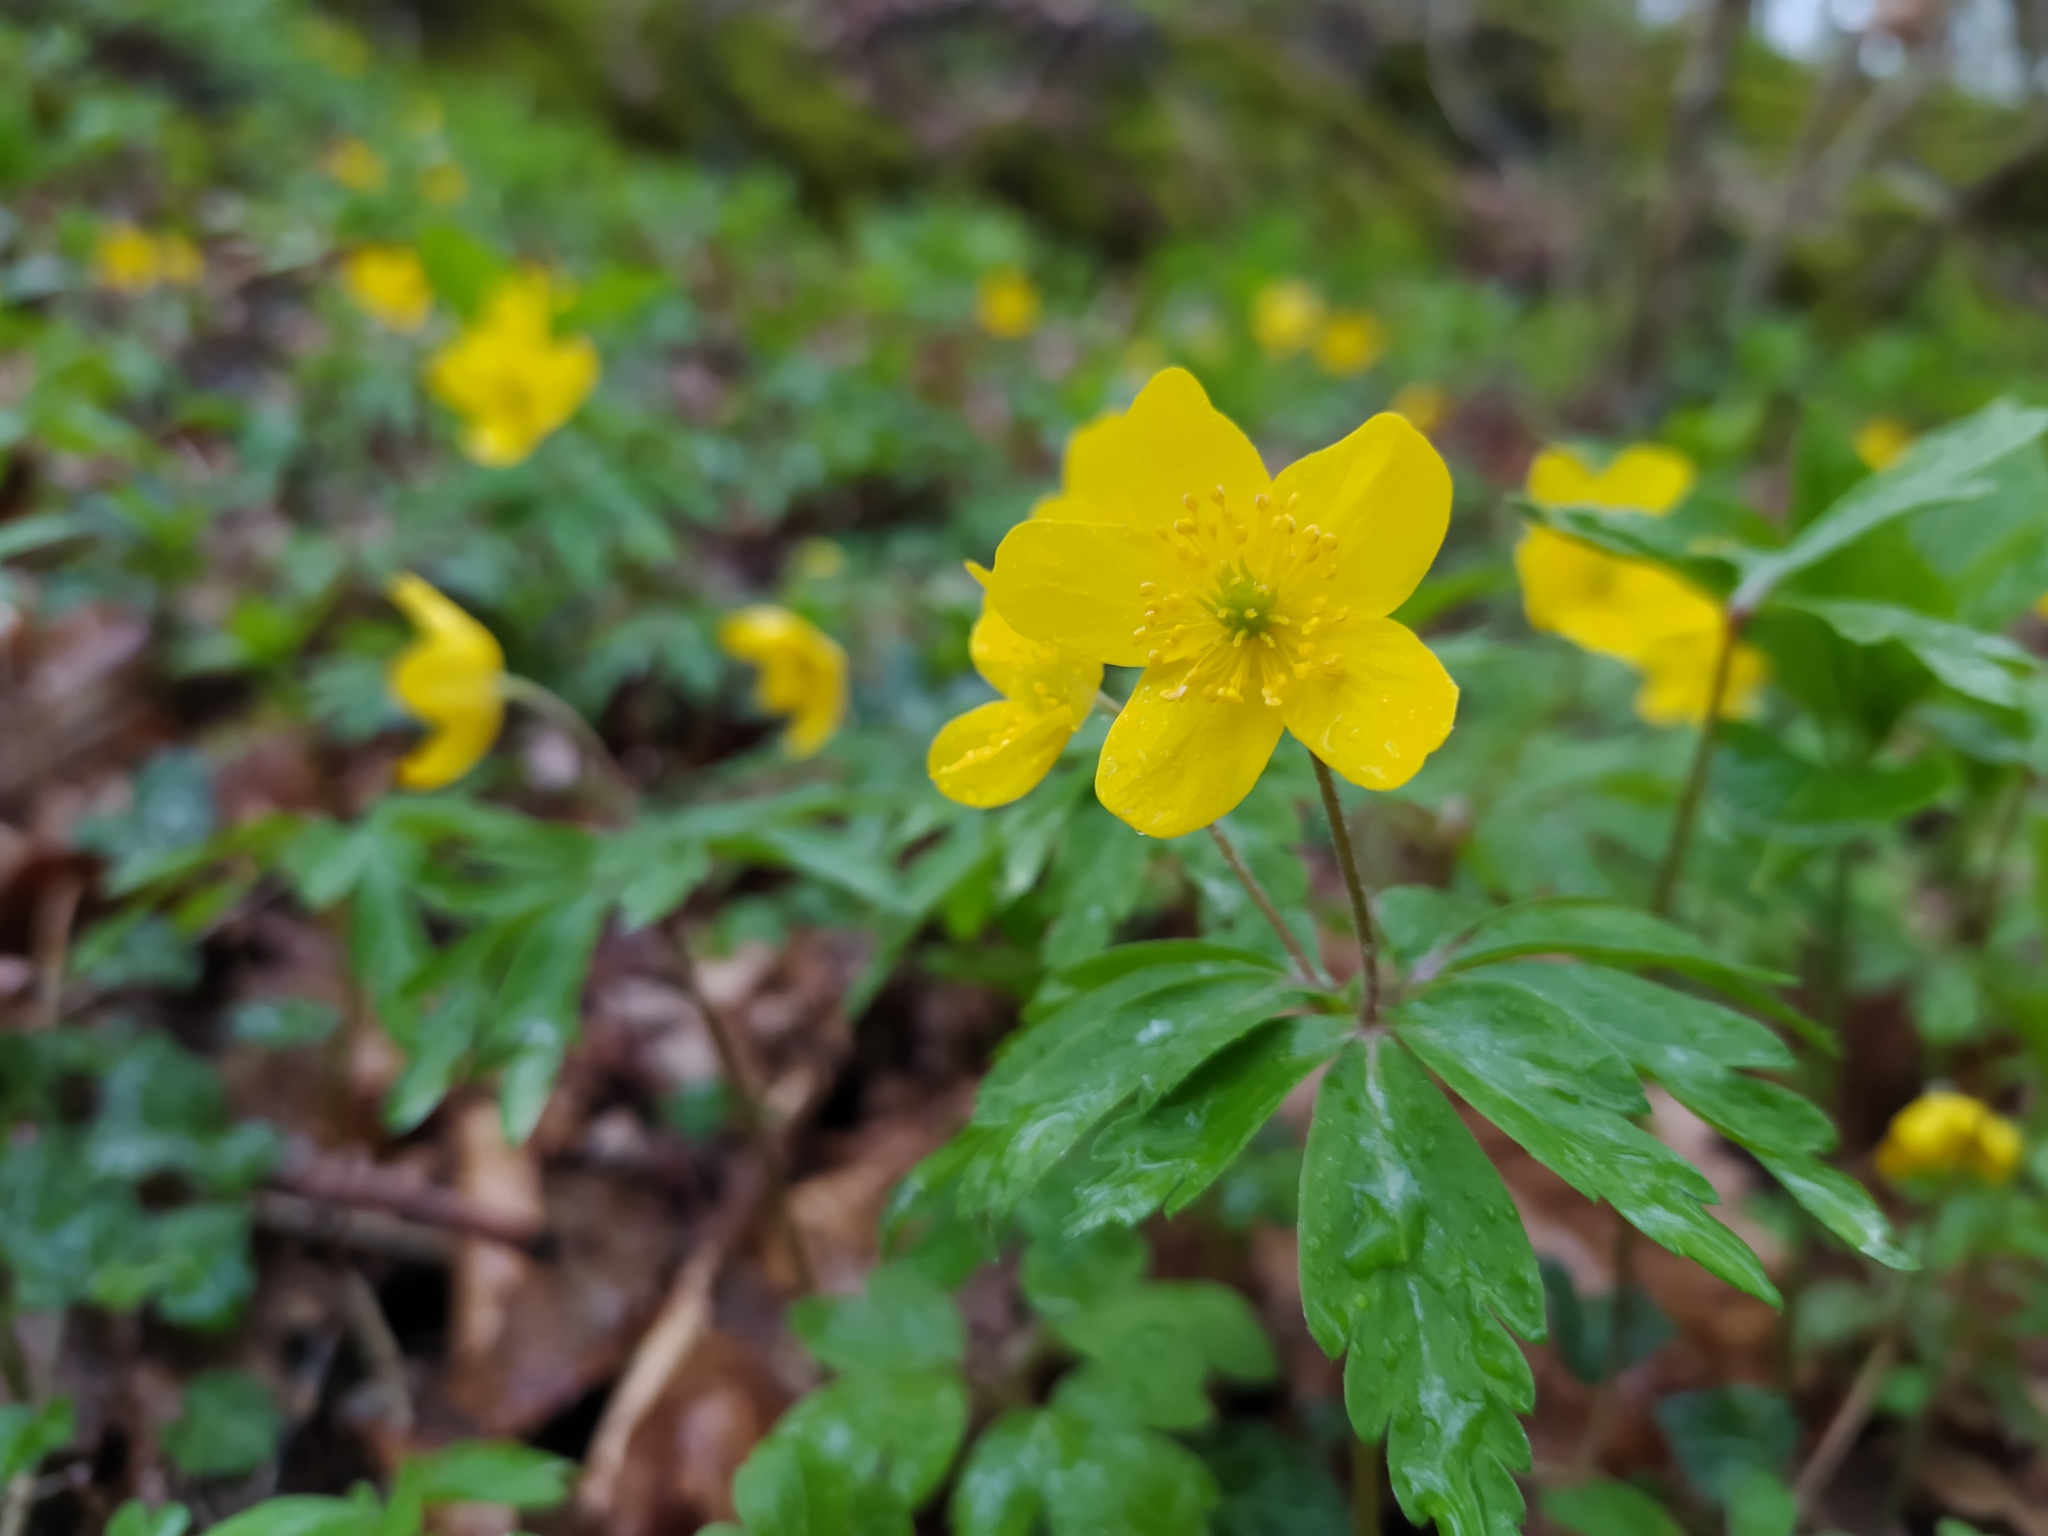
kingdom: Plantae
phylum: Tracheophyta
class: Magnoliopsida
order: Ranunculales
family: Ranunculaceae
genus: Anemone
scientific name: Anemone ranunculoides
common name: Yellow anemone
